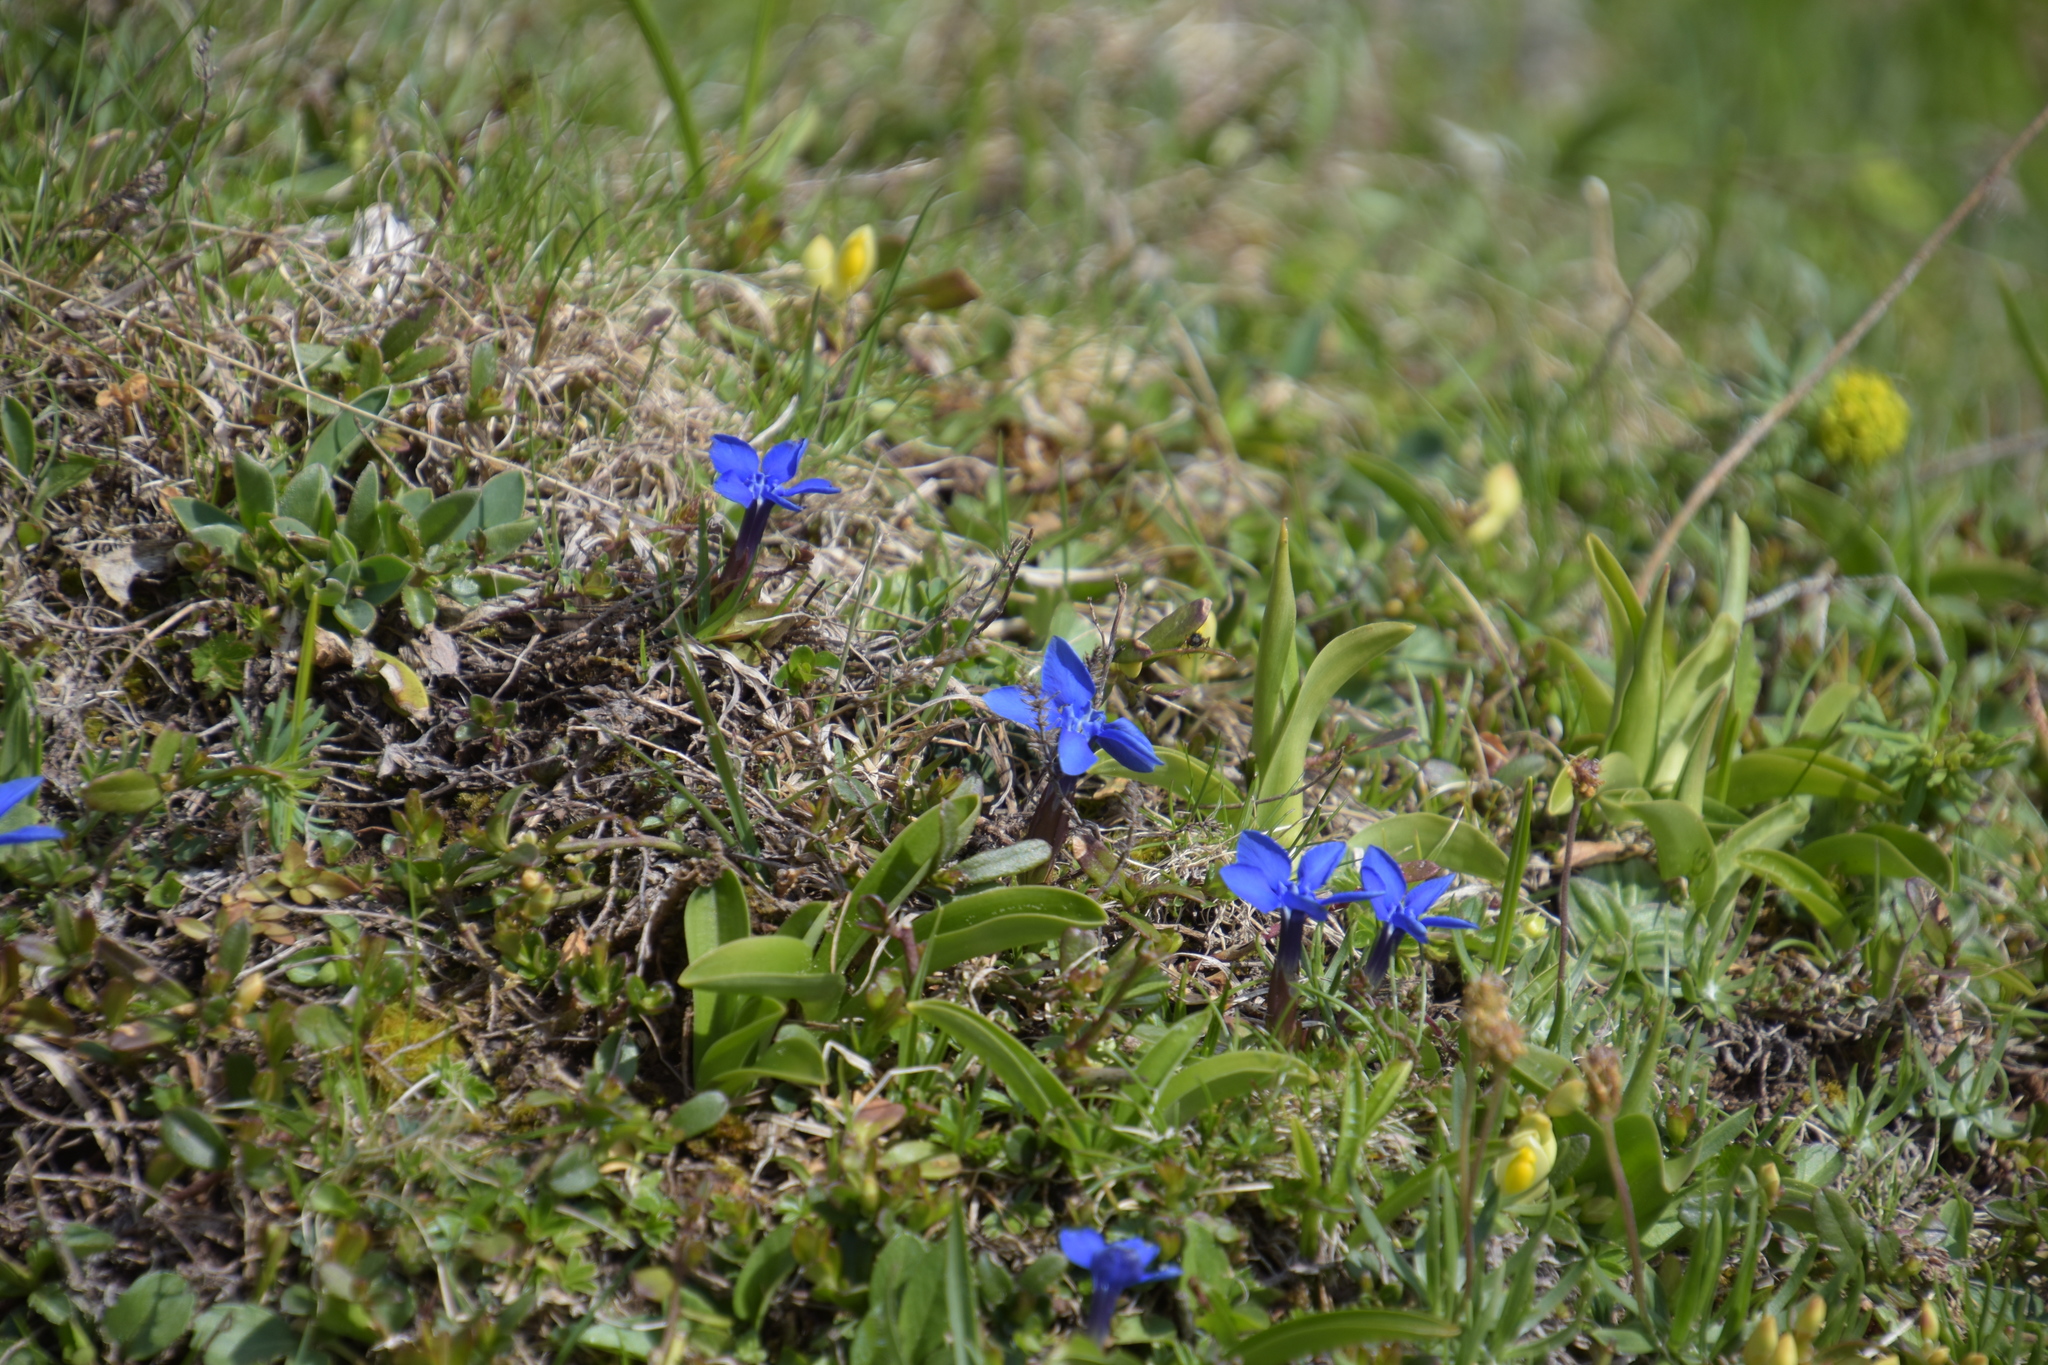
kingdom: Plantae
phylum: Tracheophyta
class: Magnoliopsida
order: Gentianales
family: Gentianaceae
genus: Gentiana
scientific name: Gentiana verna
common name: Spring gentian
